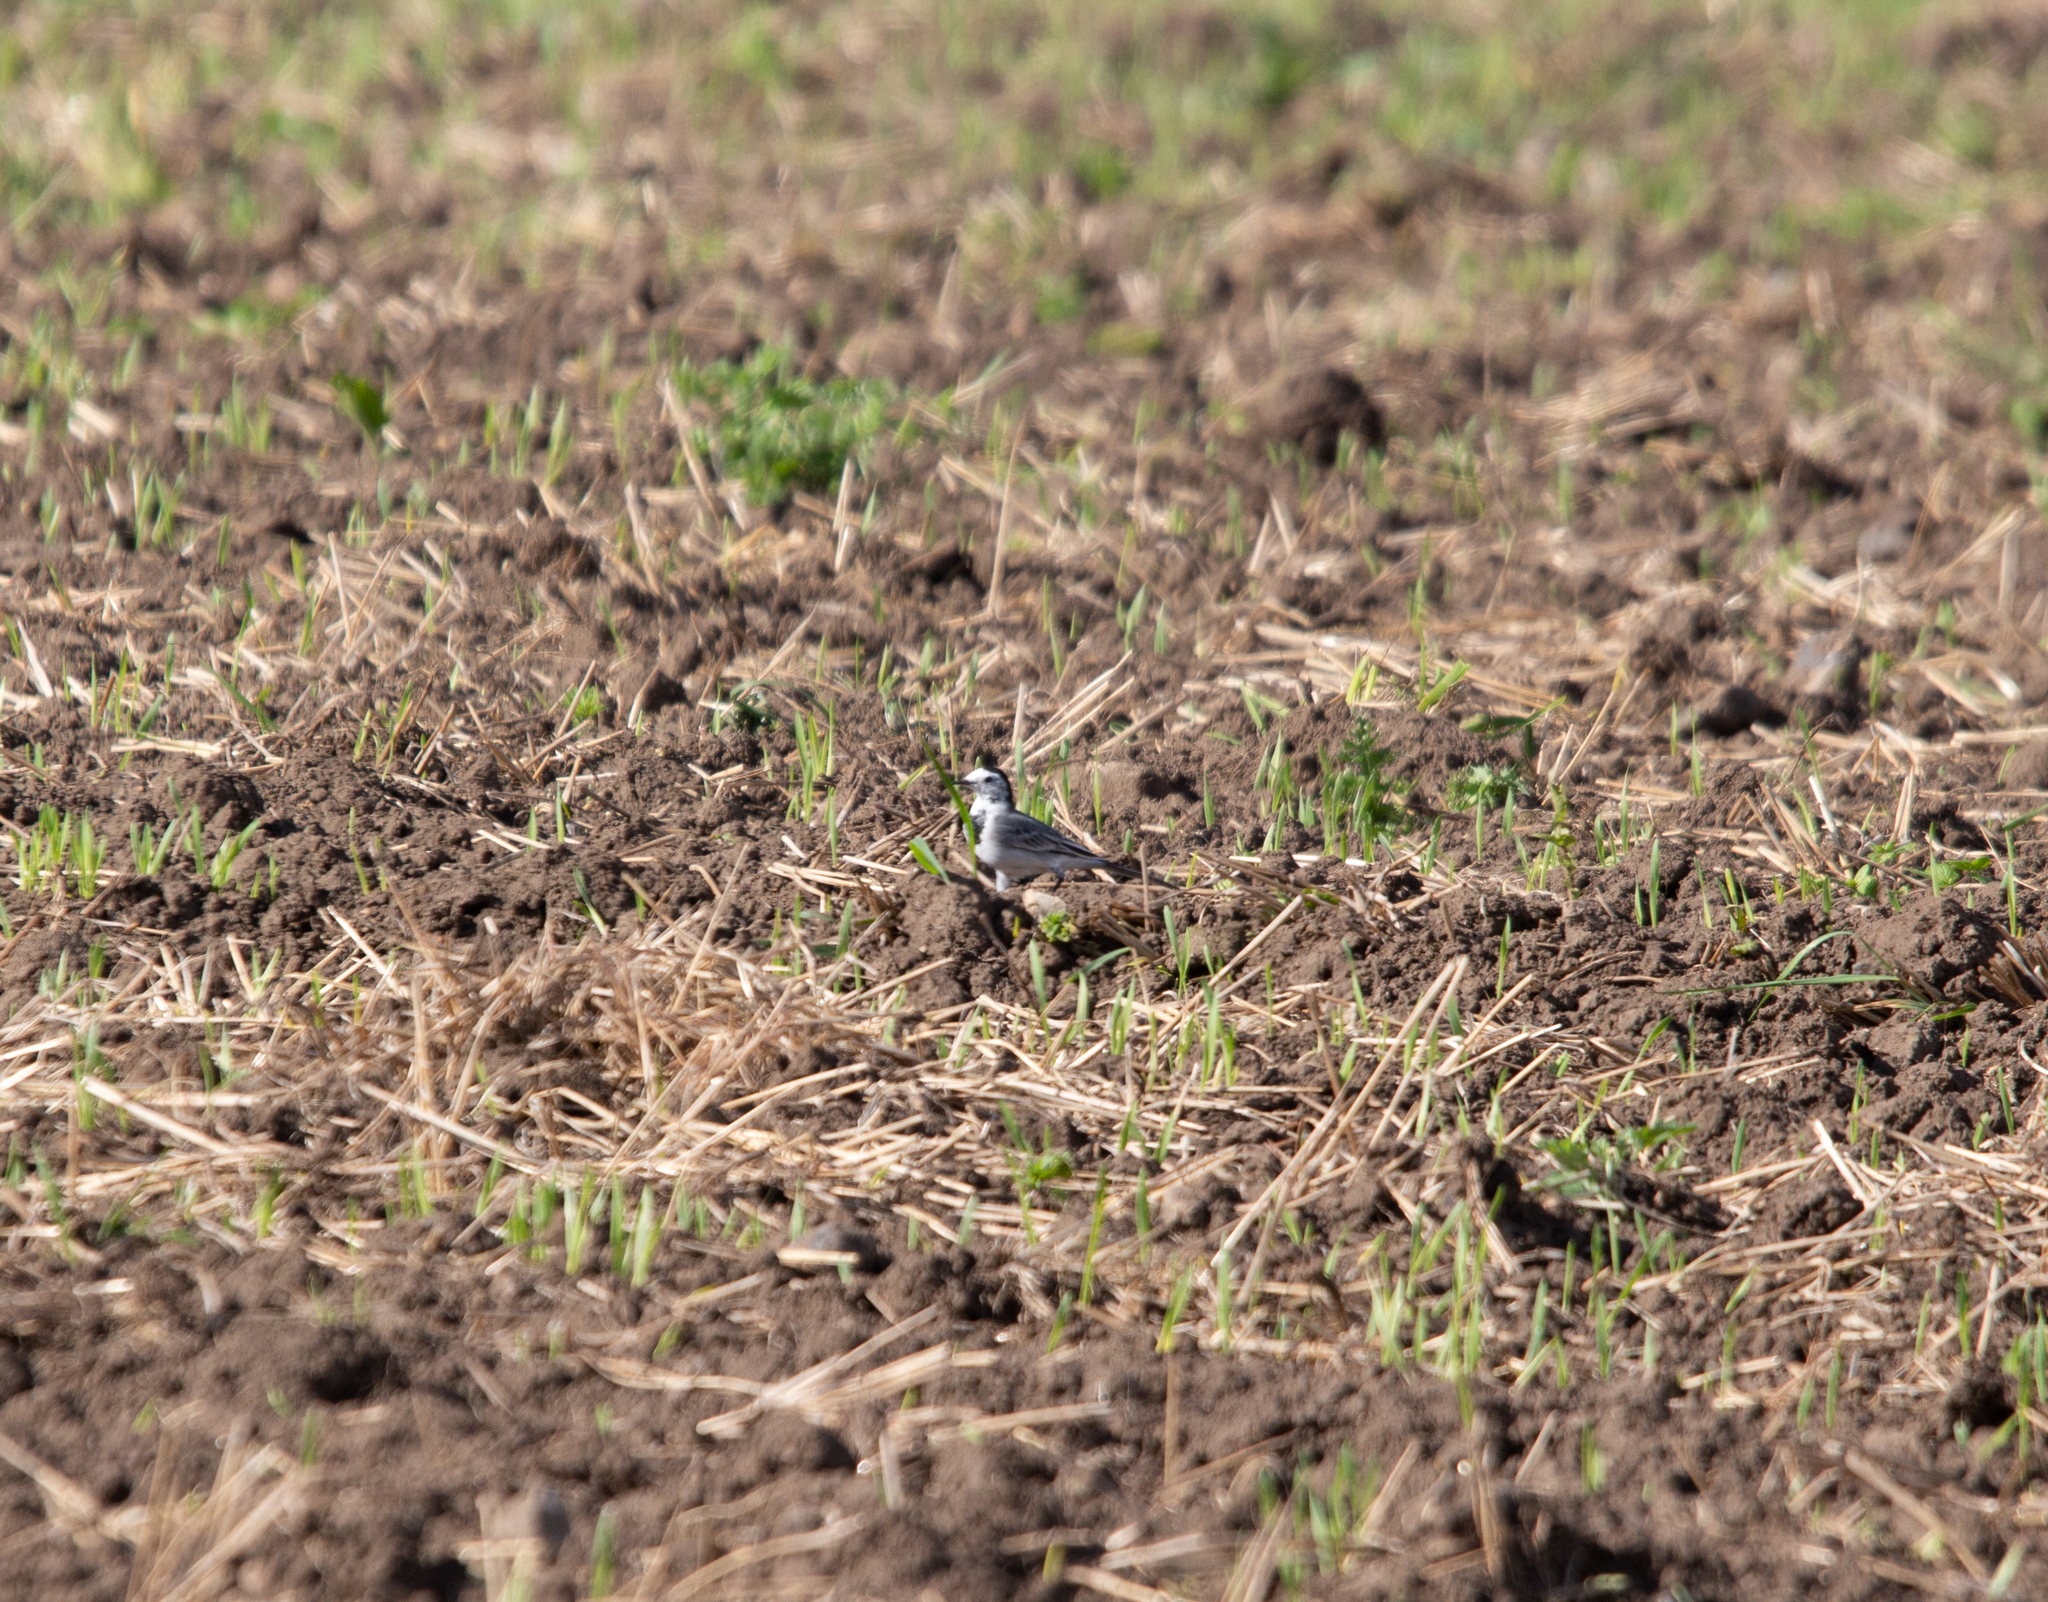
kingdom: Animalia
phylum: Chordata
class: Aves
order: Passeriformes
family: Motacillidae
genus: Motacilla
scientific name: Motacilla alba
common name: White wagtail
